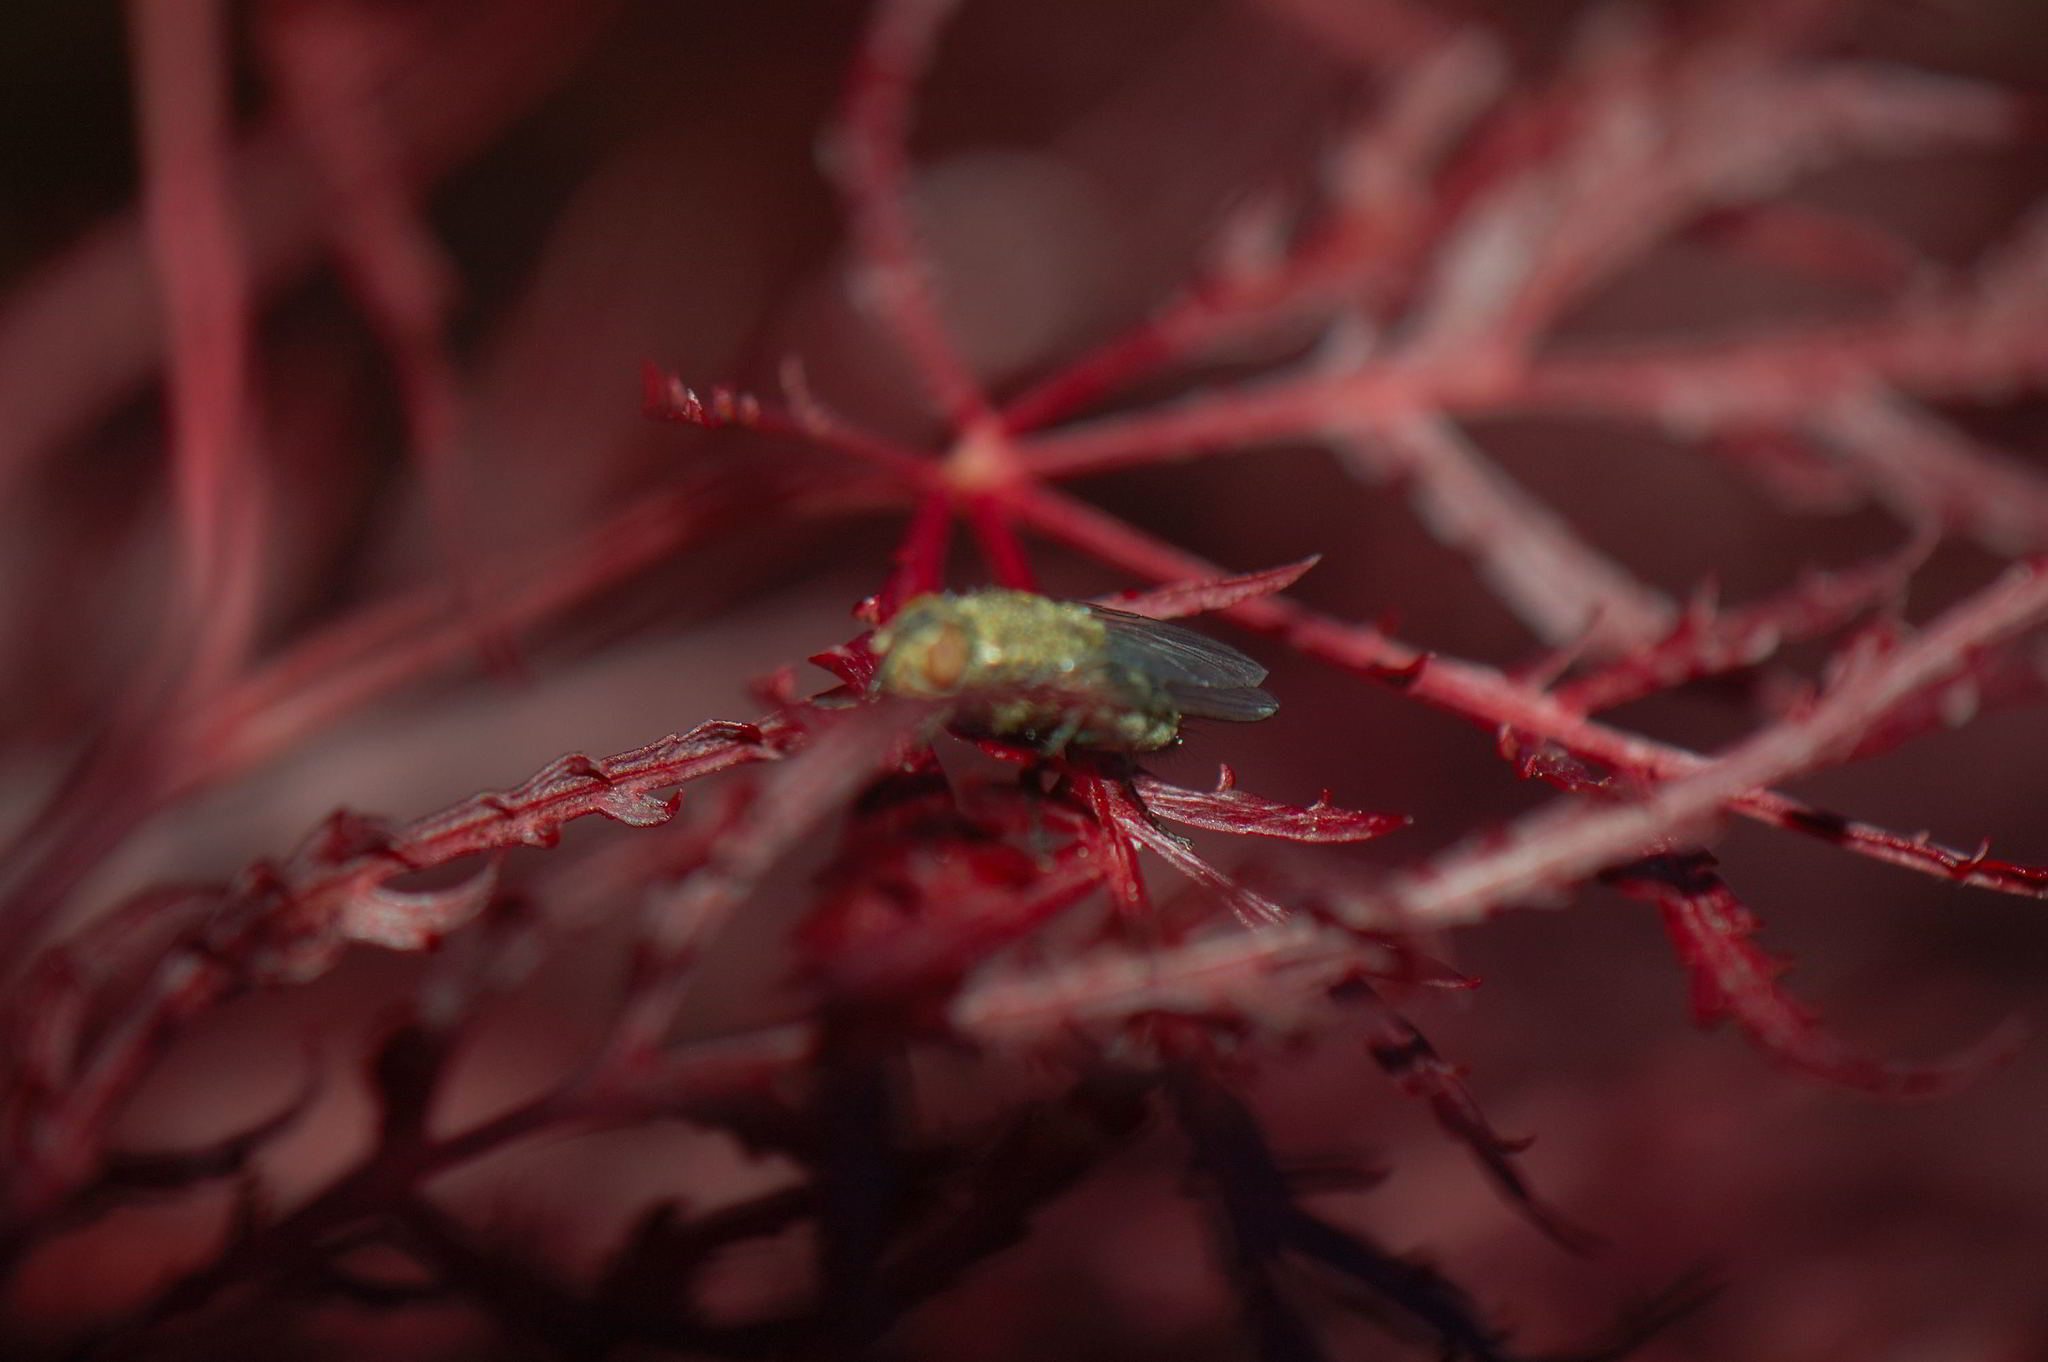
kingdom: Animalia
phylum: Arthropoda
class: Insecta
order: Diptera
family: Polleniidae
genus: Pollenia
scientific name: Pollenia
